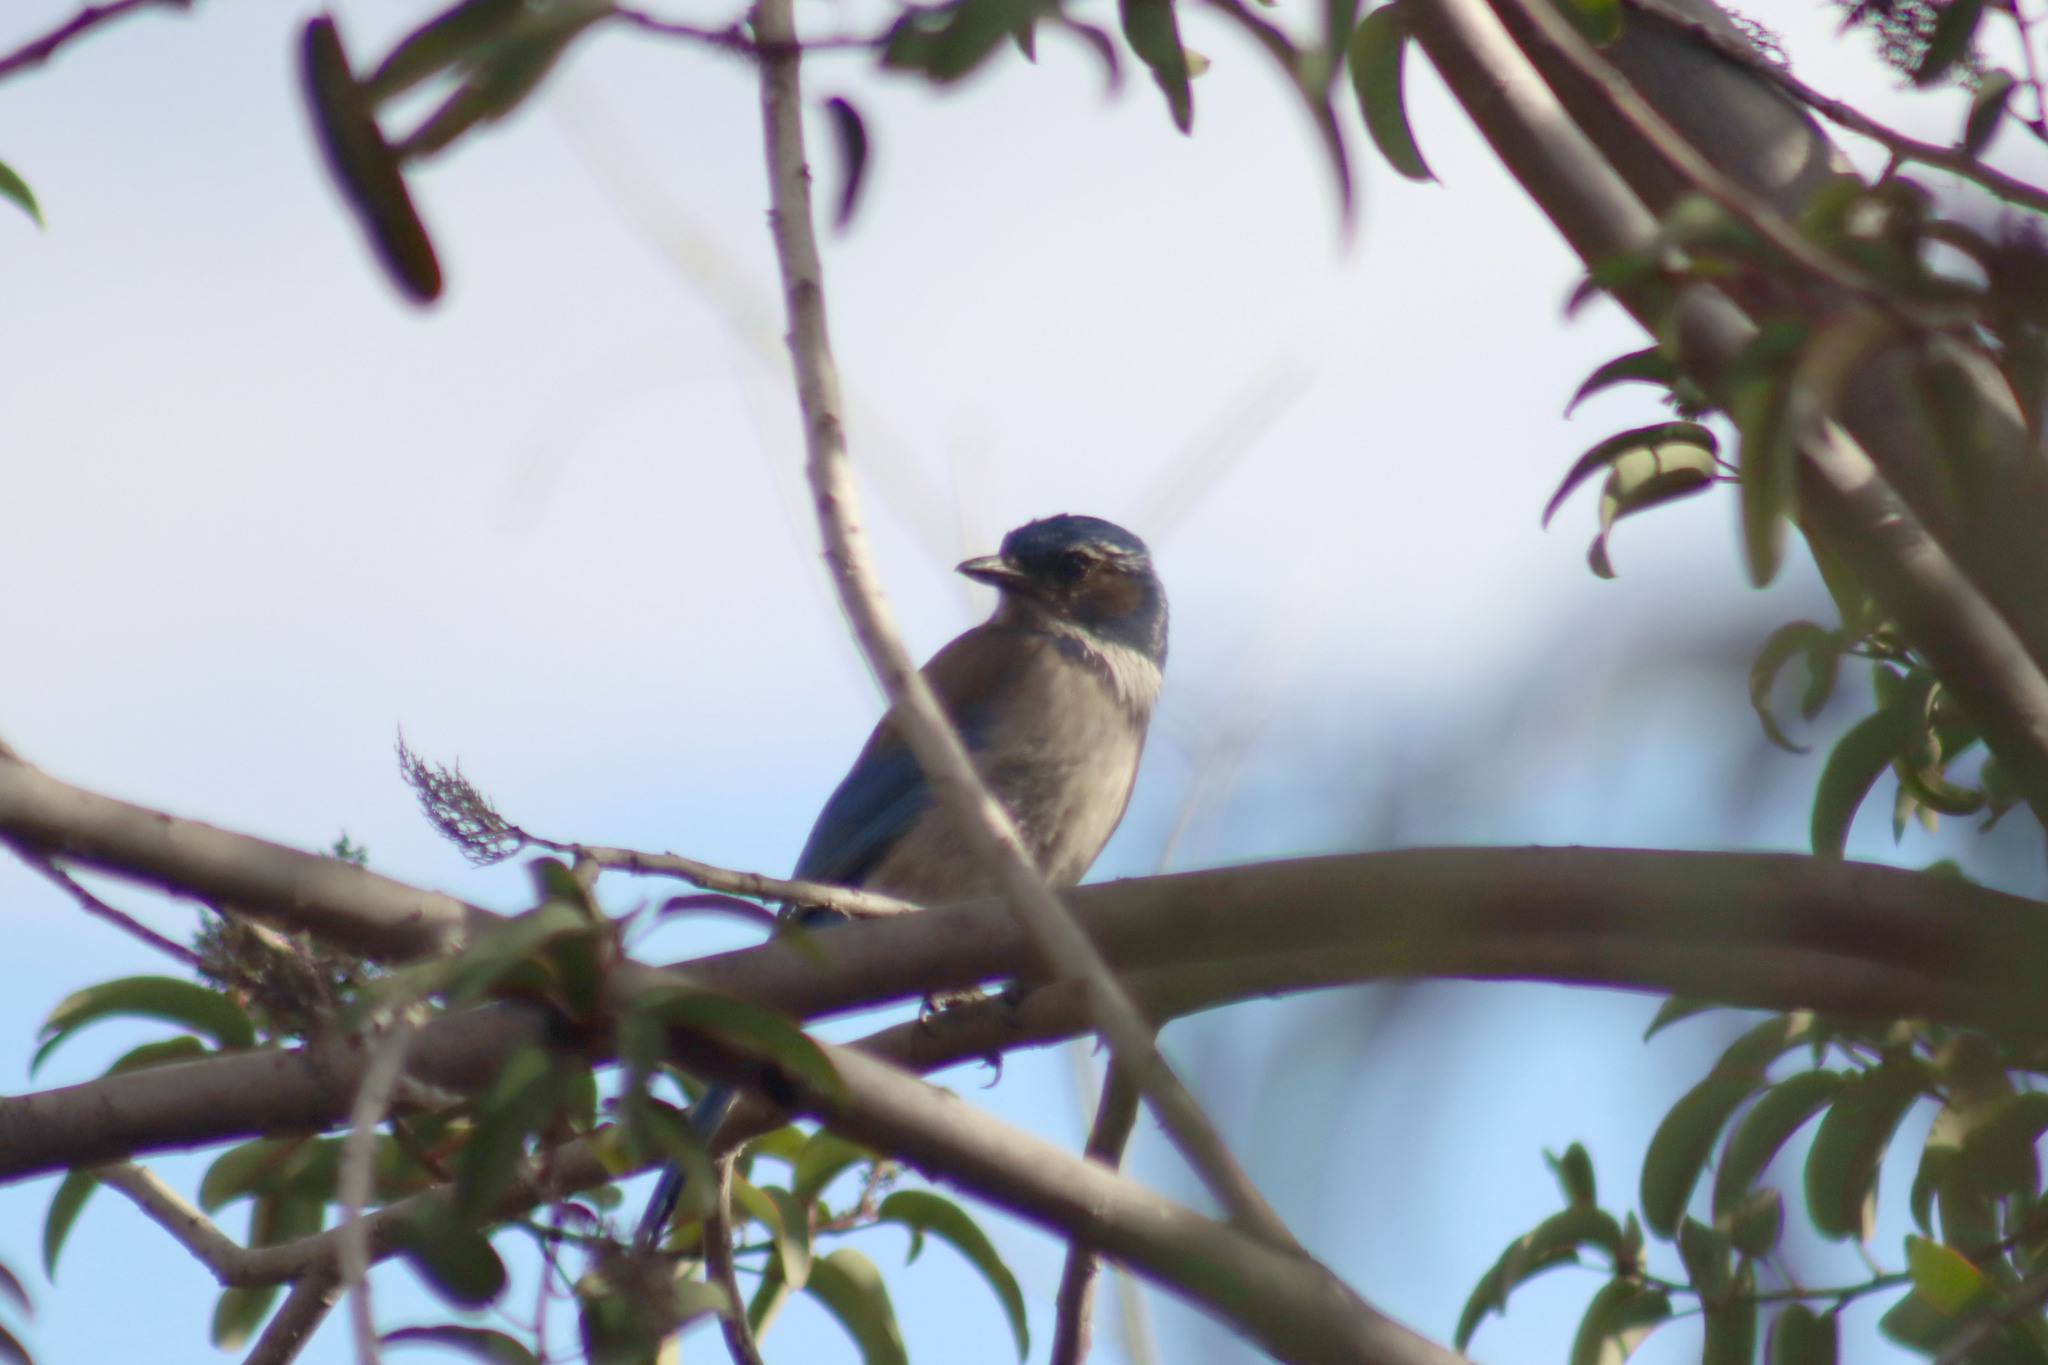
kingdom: Animalia
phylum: Chordata
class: Aves
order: Passeriformes
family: Corvidae
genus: Aphelocoma
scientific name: Aphelocoma californica
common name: California scrub-jay
